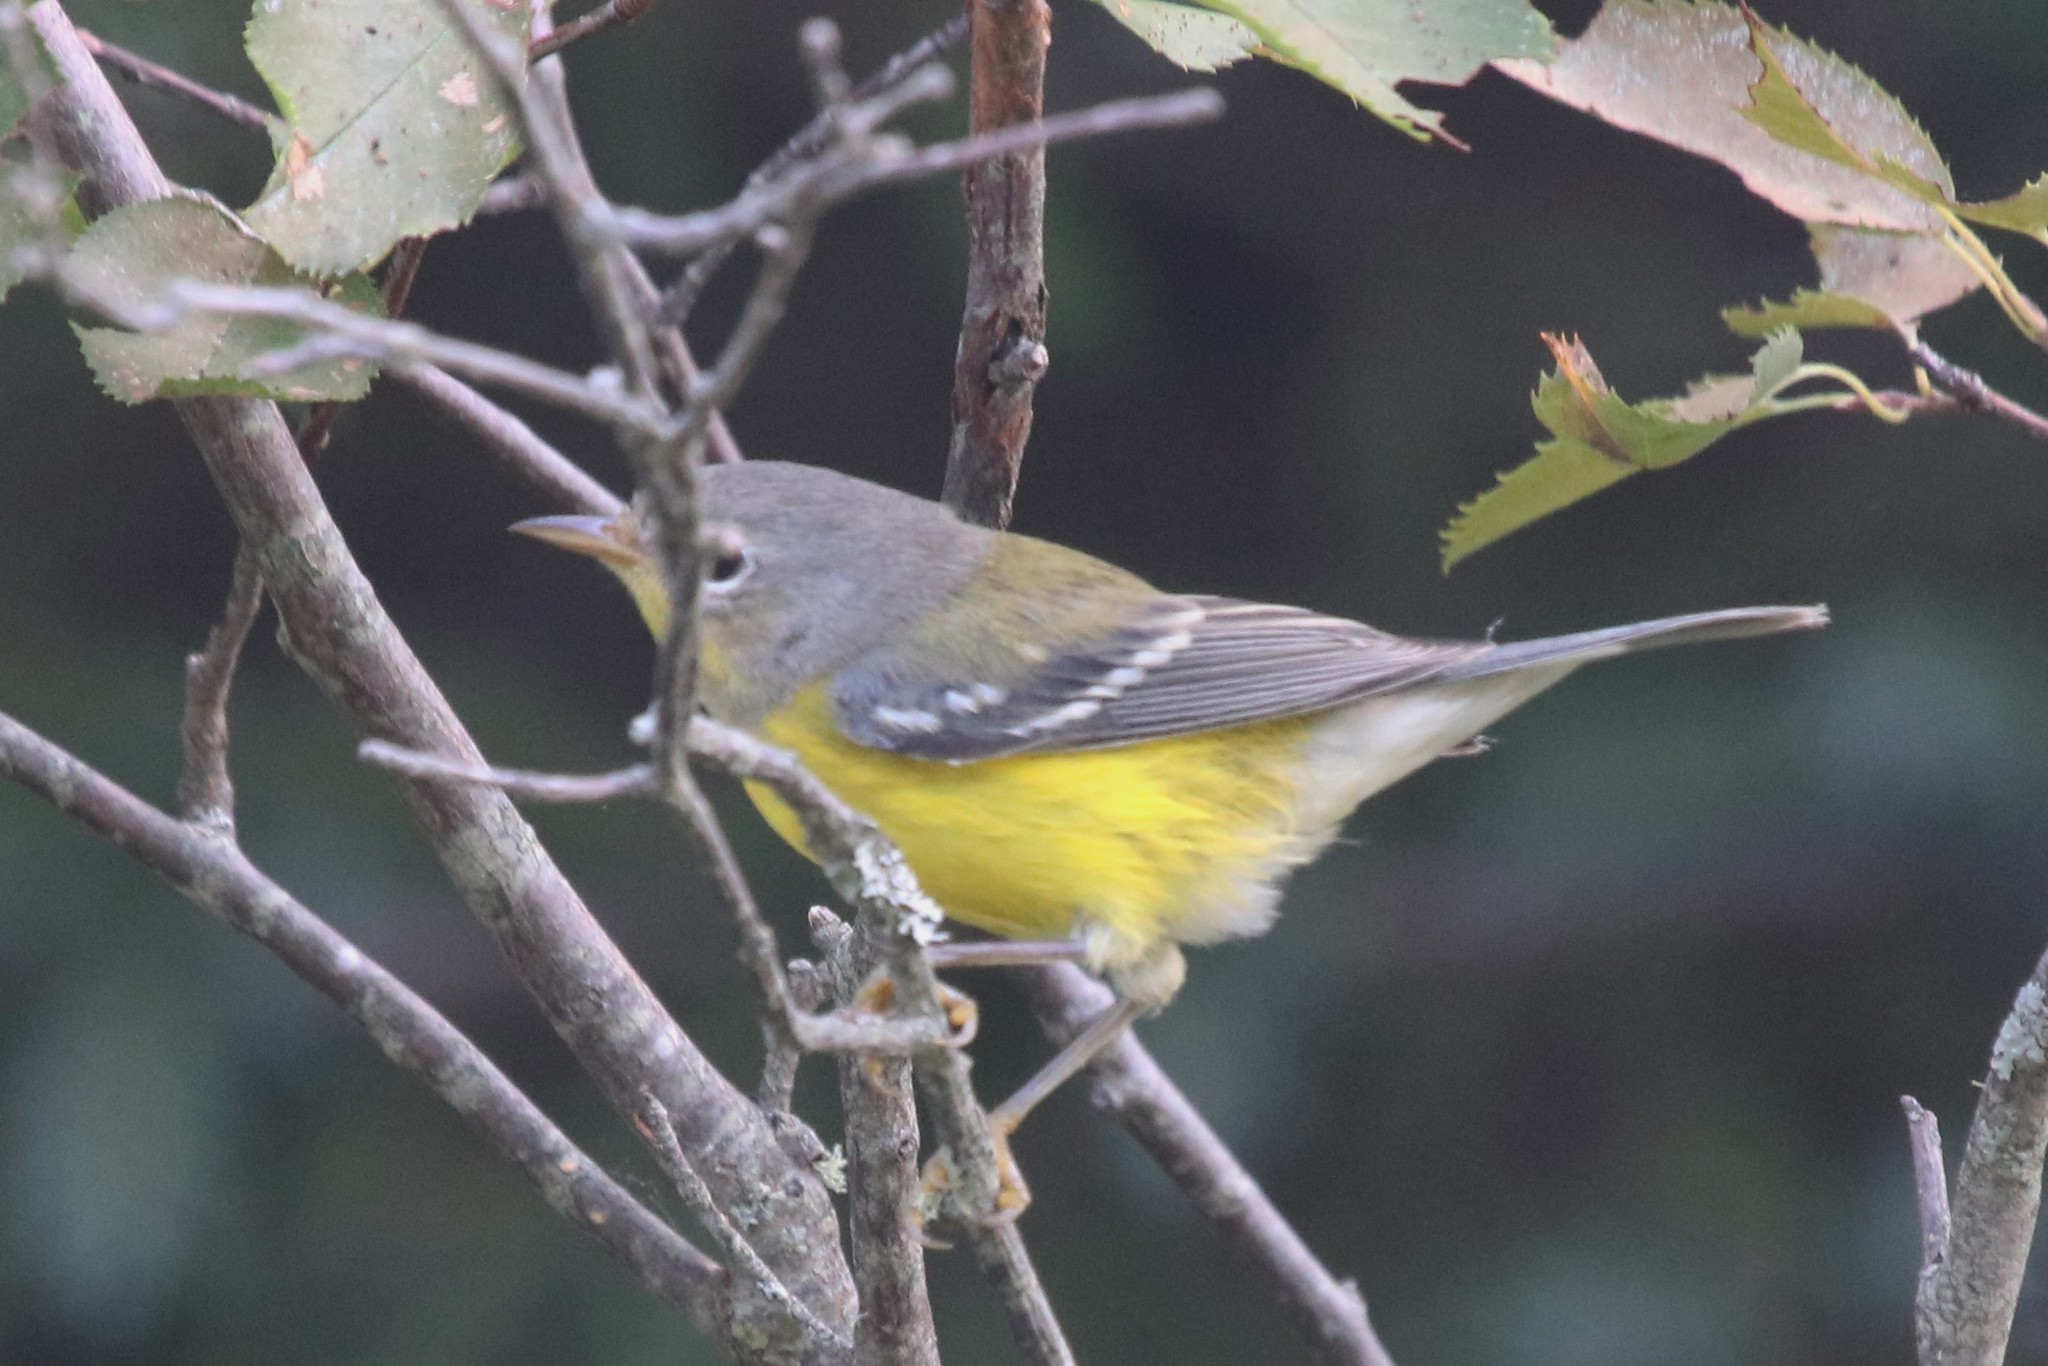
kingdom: Animalia
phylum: Chordata
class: Aves
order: Passeriformes
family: Parulidae
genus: Setophaga
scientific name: Setophaga magnolia
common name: Magnolia warbler
